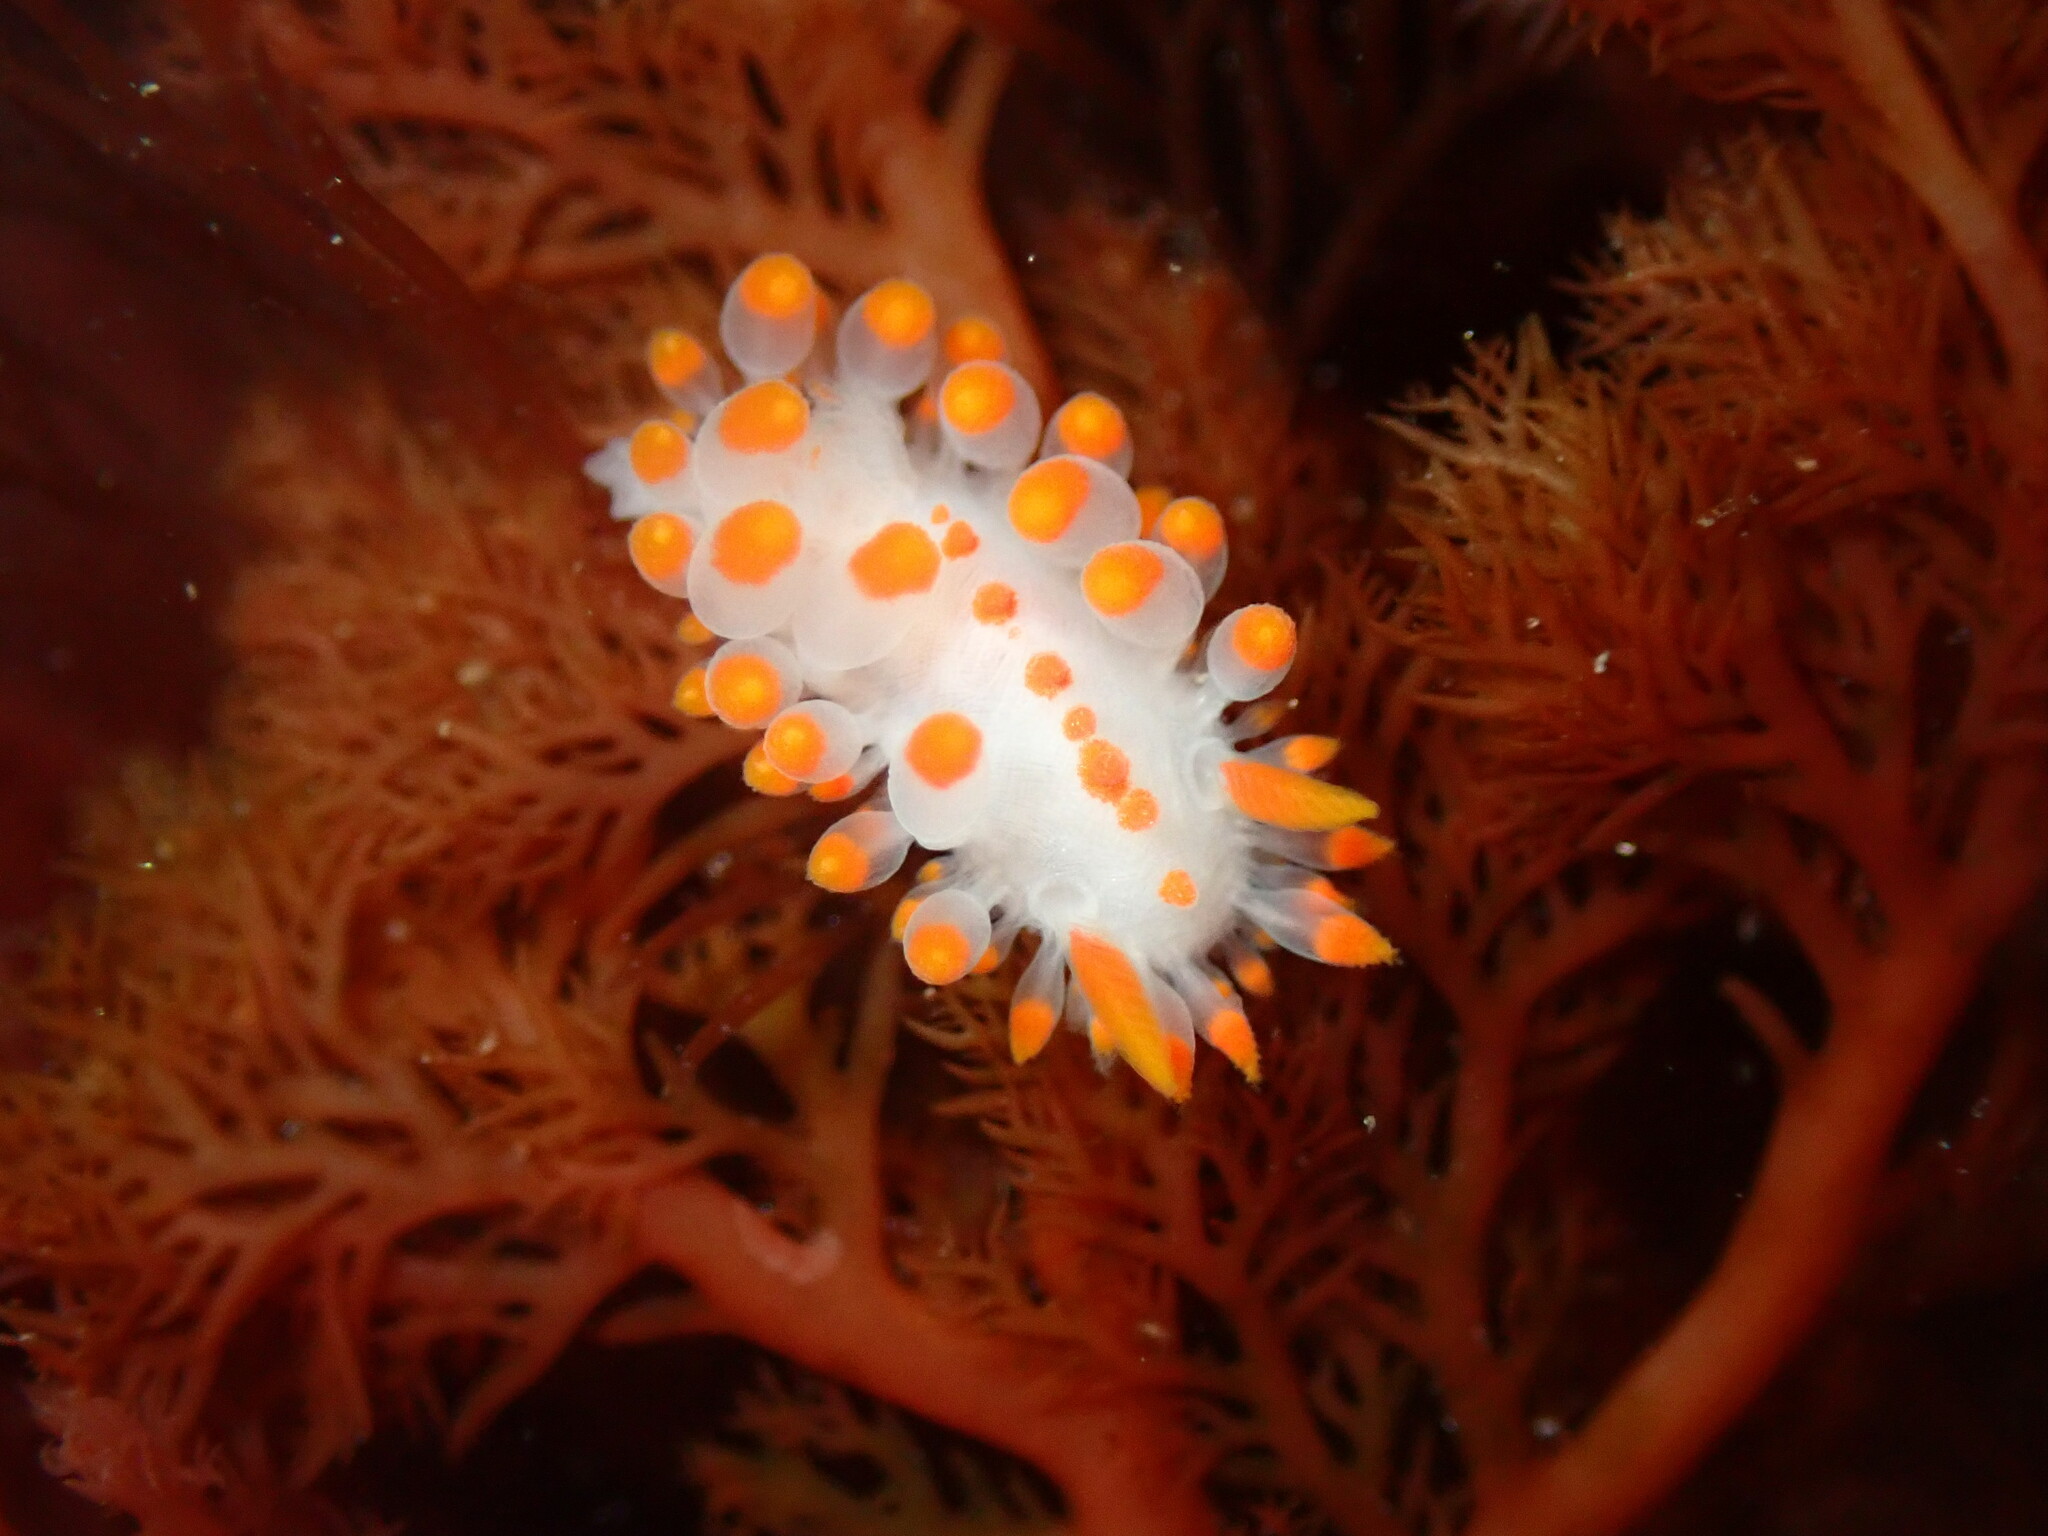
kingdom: Animalia
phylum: Mollusca
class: Gastropoda
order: Nudibranchia
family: Polyceridae
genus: Limacia
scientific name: Limacia mcdonaldi
